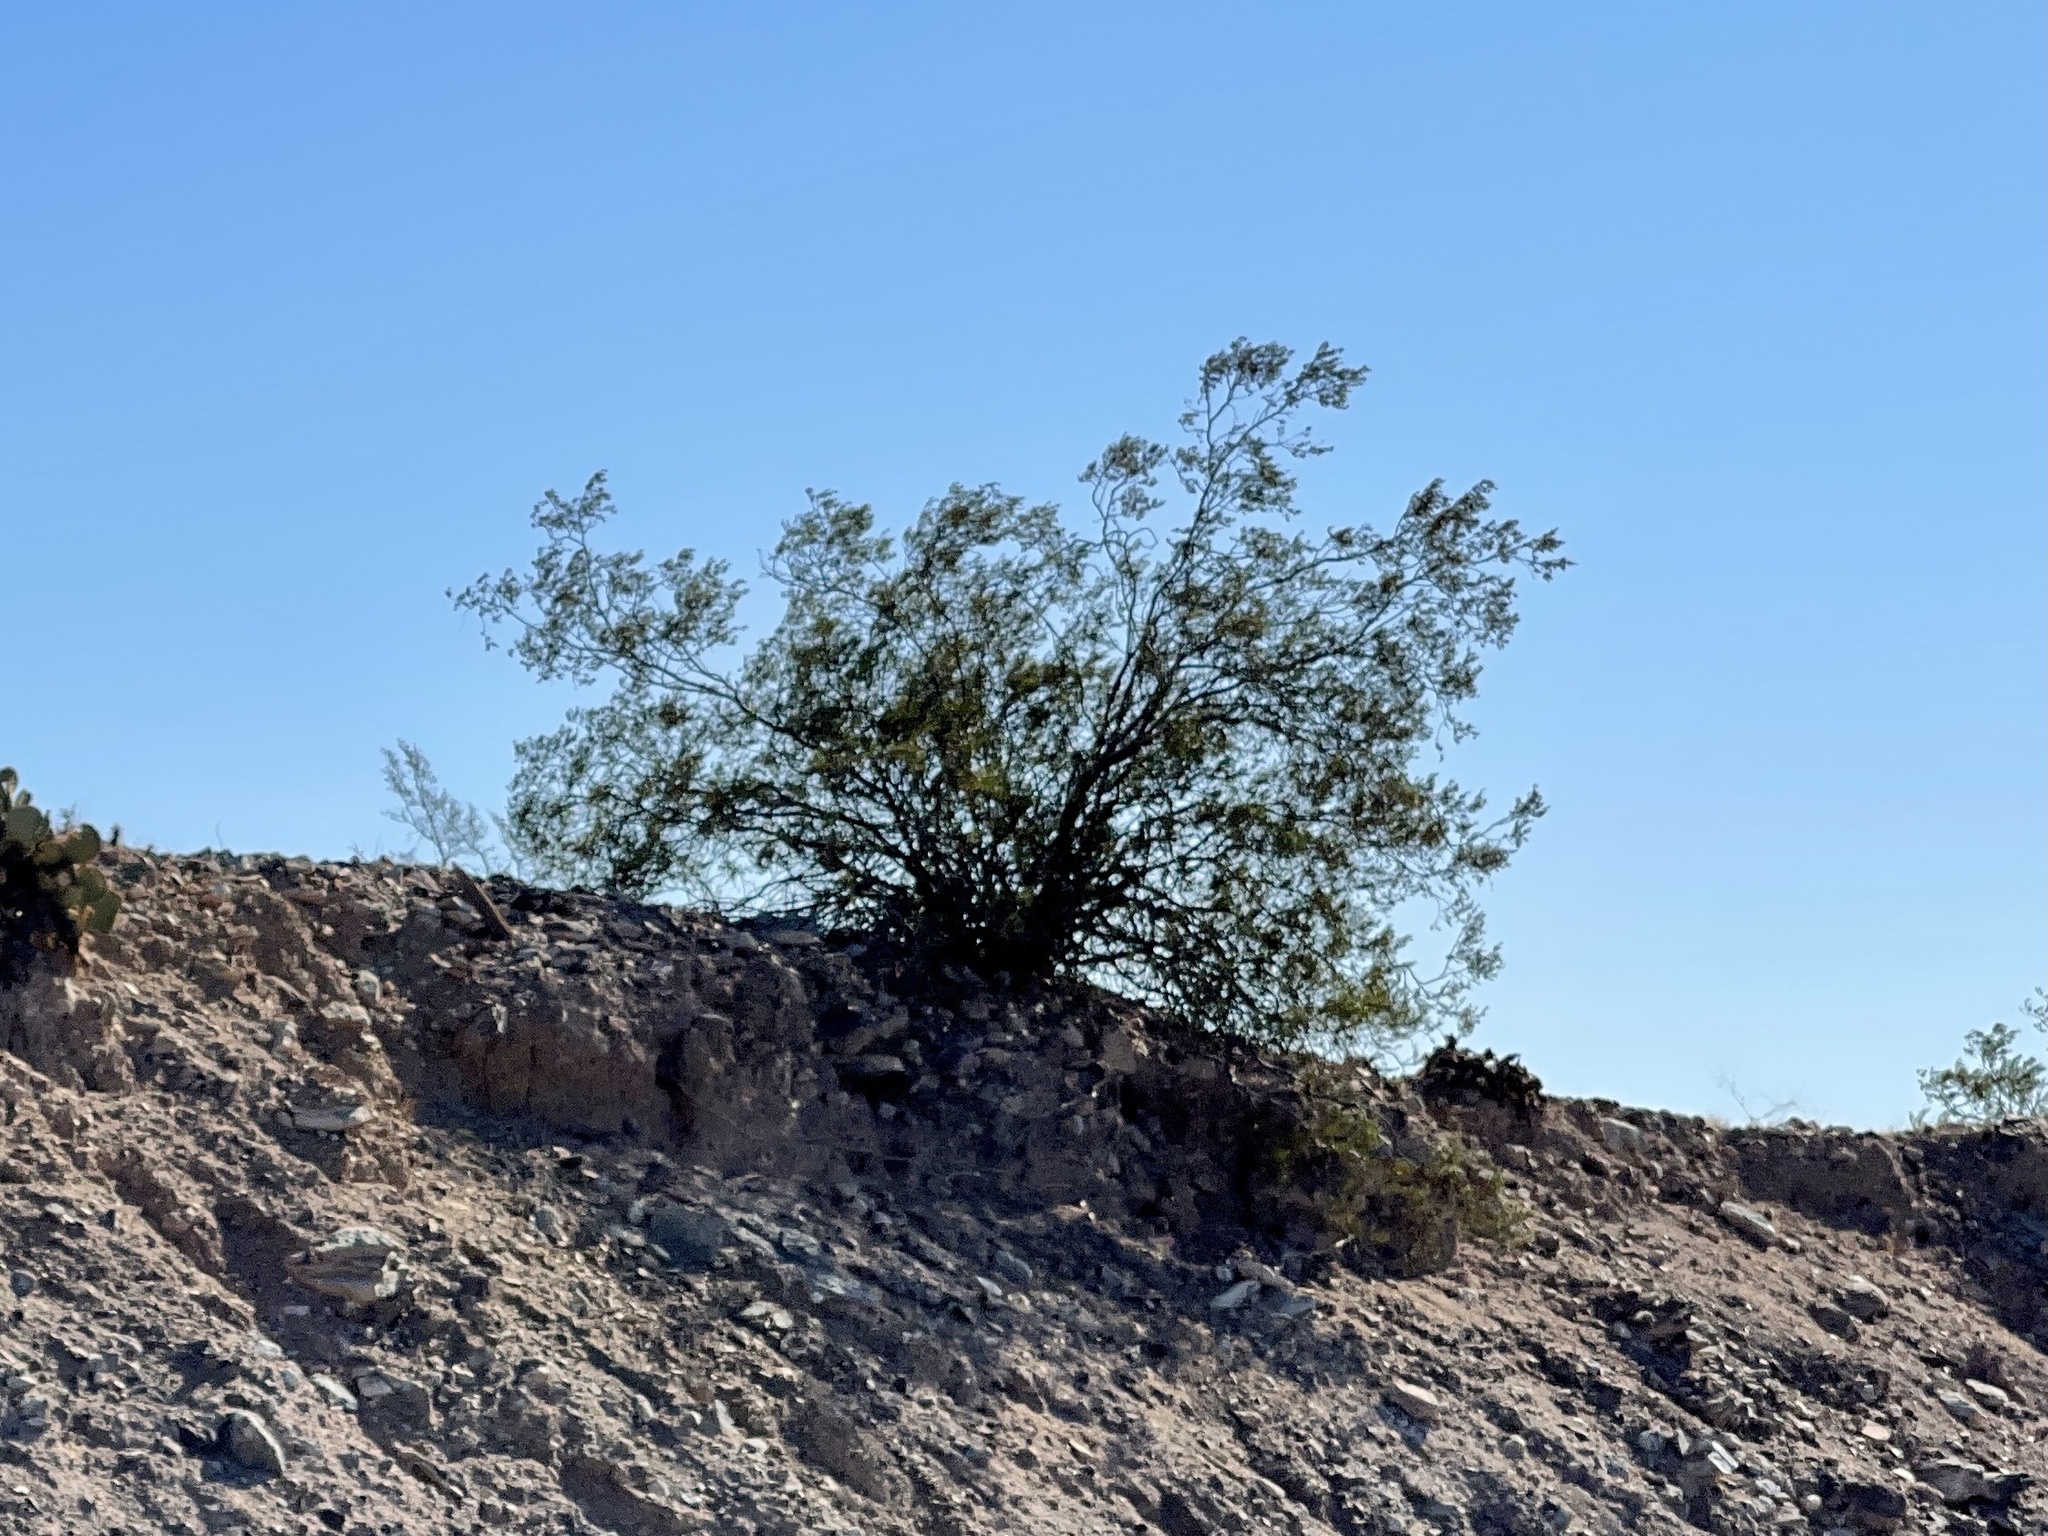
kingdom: Plantae
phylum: Tracheophyta
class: Magnoliopsida
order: Zygophyllales
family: Zygophyllaceae
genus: Larrea
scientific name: Larrea tridentata
